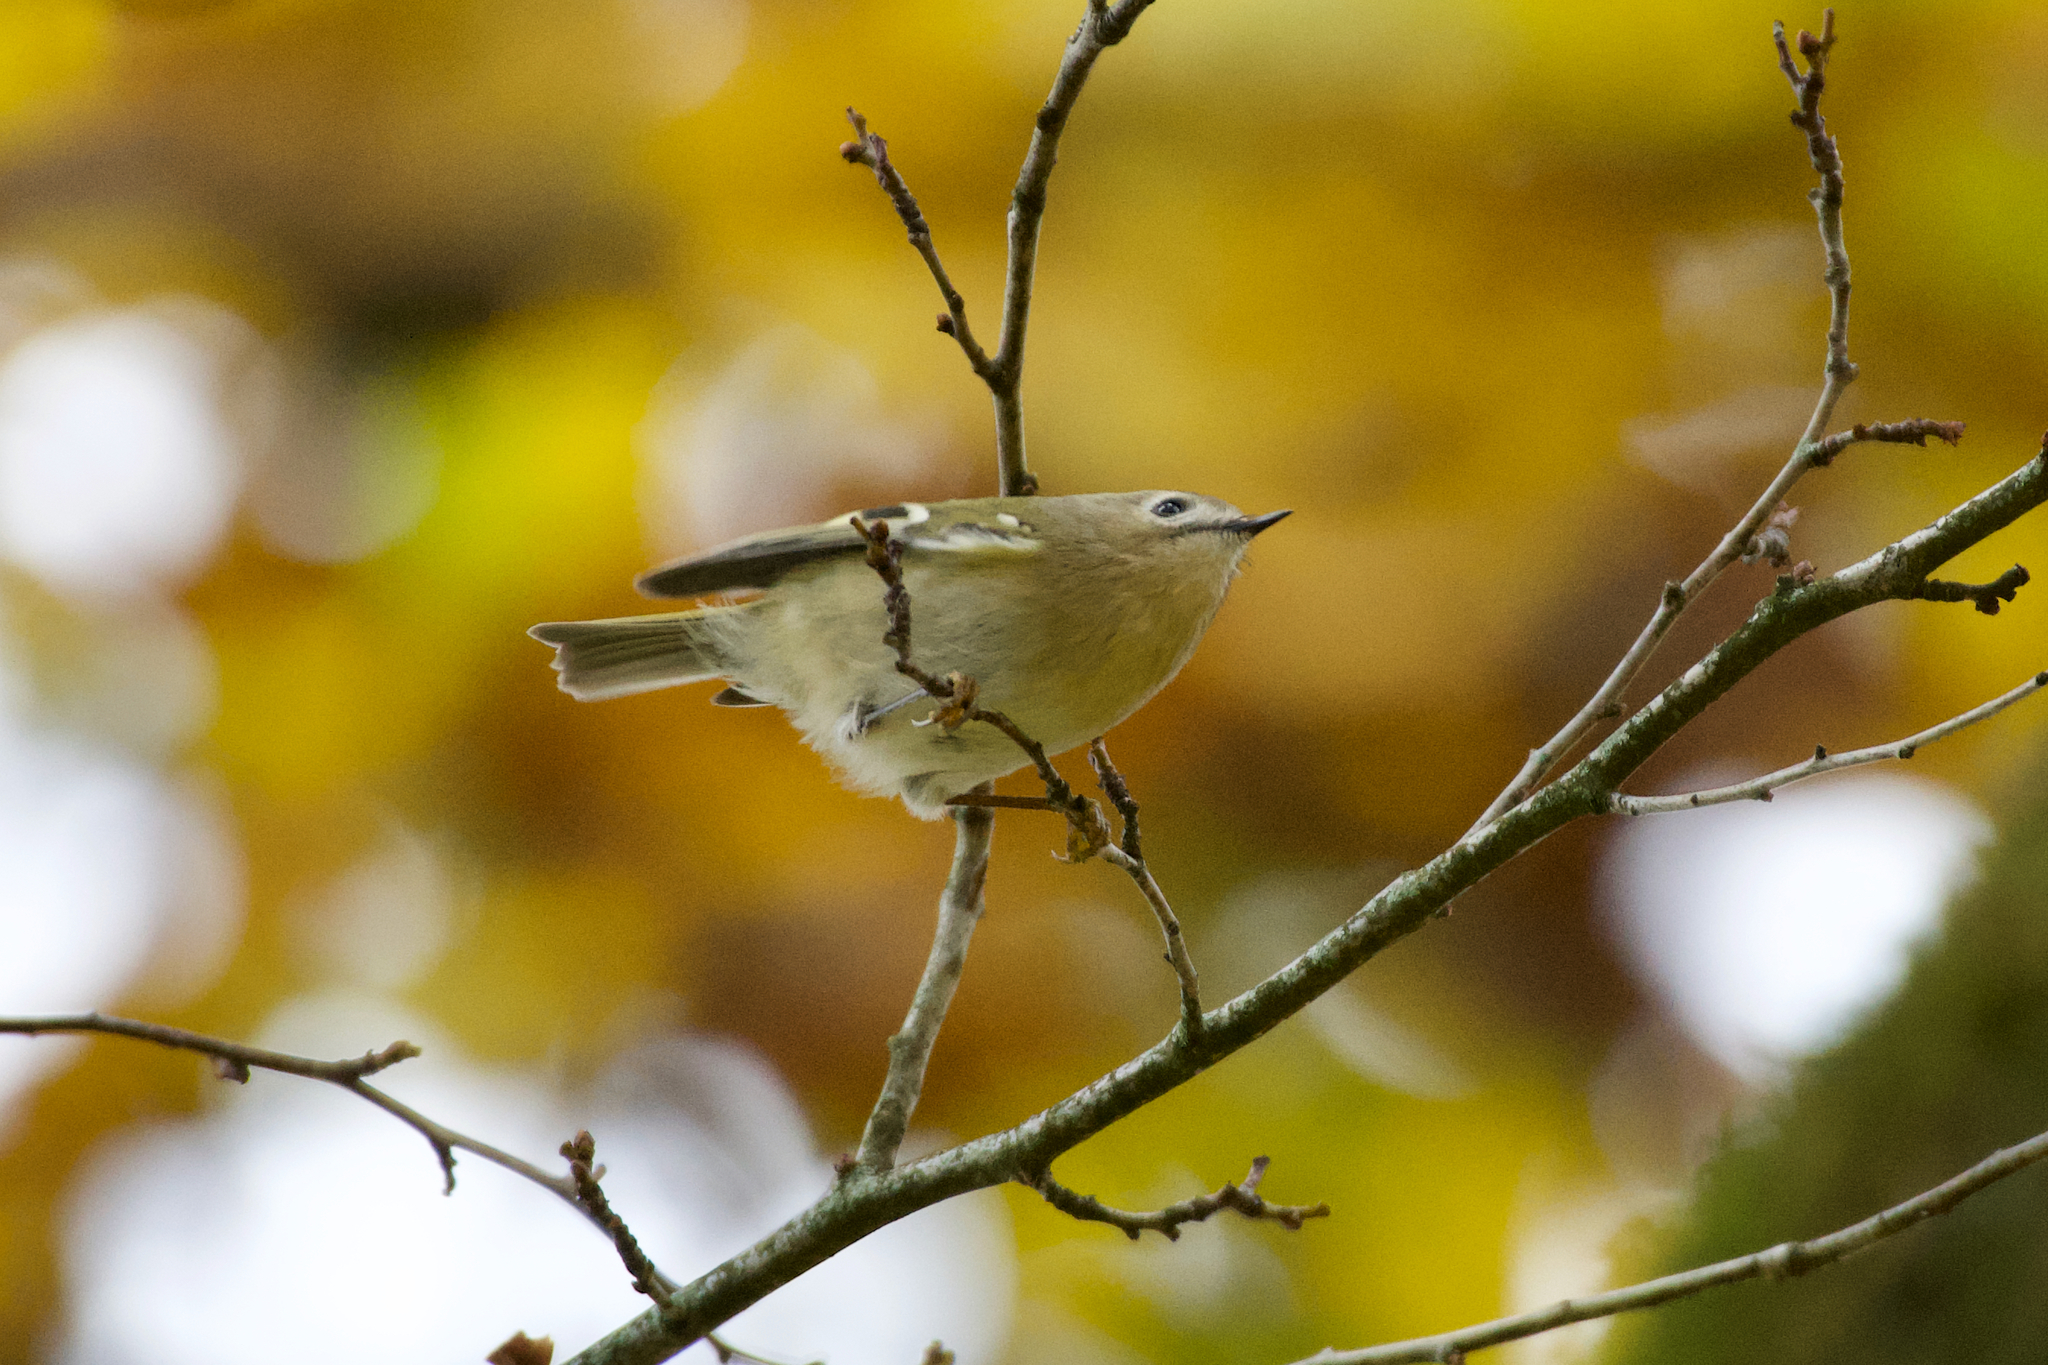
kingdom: Animalia
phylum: Chordata
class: Aves
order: Passeriformes
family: Regulidae
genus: Regulus
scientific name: Regulus regulus
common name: Goldcrest
